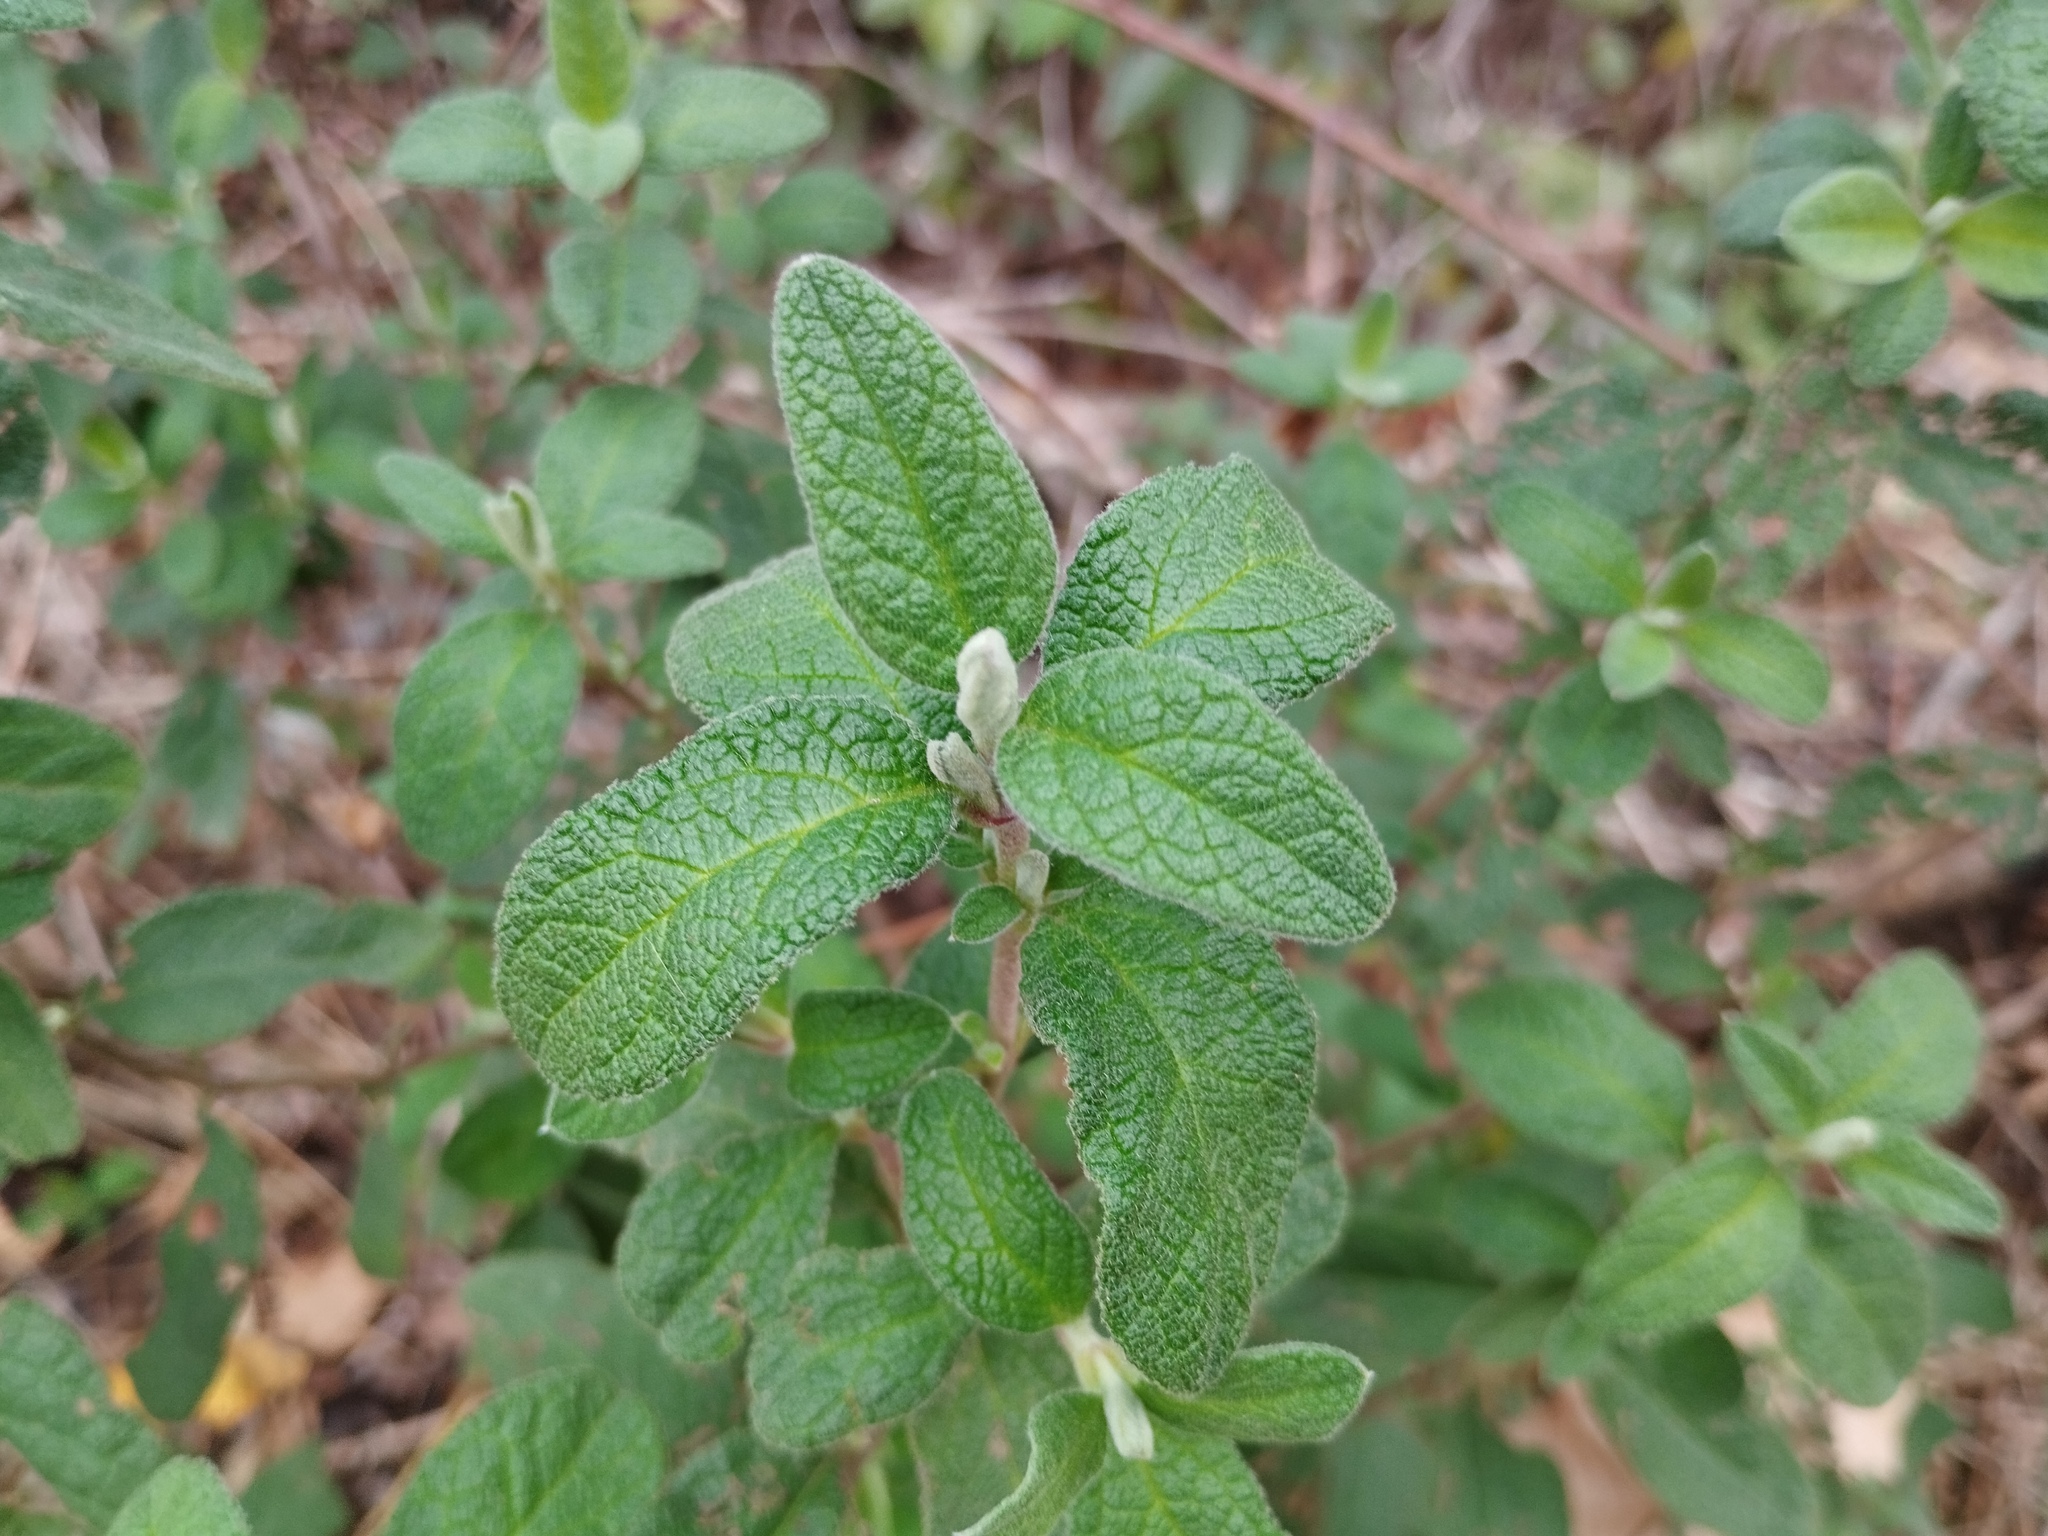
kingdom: Plantae
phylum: Tracheophyta
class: Magnoliopsida
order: Malvales
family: Cistaceae
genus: Cistus
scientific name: Cistus salviifolius
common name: Salvia cistus
